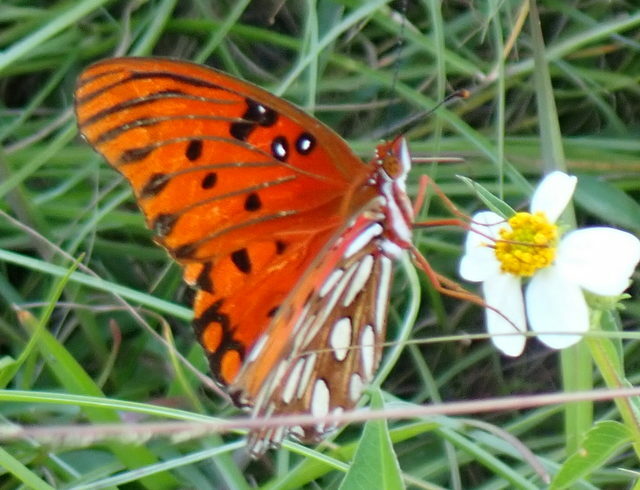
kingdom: Animalia
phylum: Arthropoda
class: Insecta
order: Lepidoptera
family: Nymphalidae
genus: Dione
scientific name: Dione vanillae
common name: Gulf fritillary
